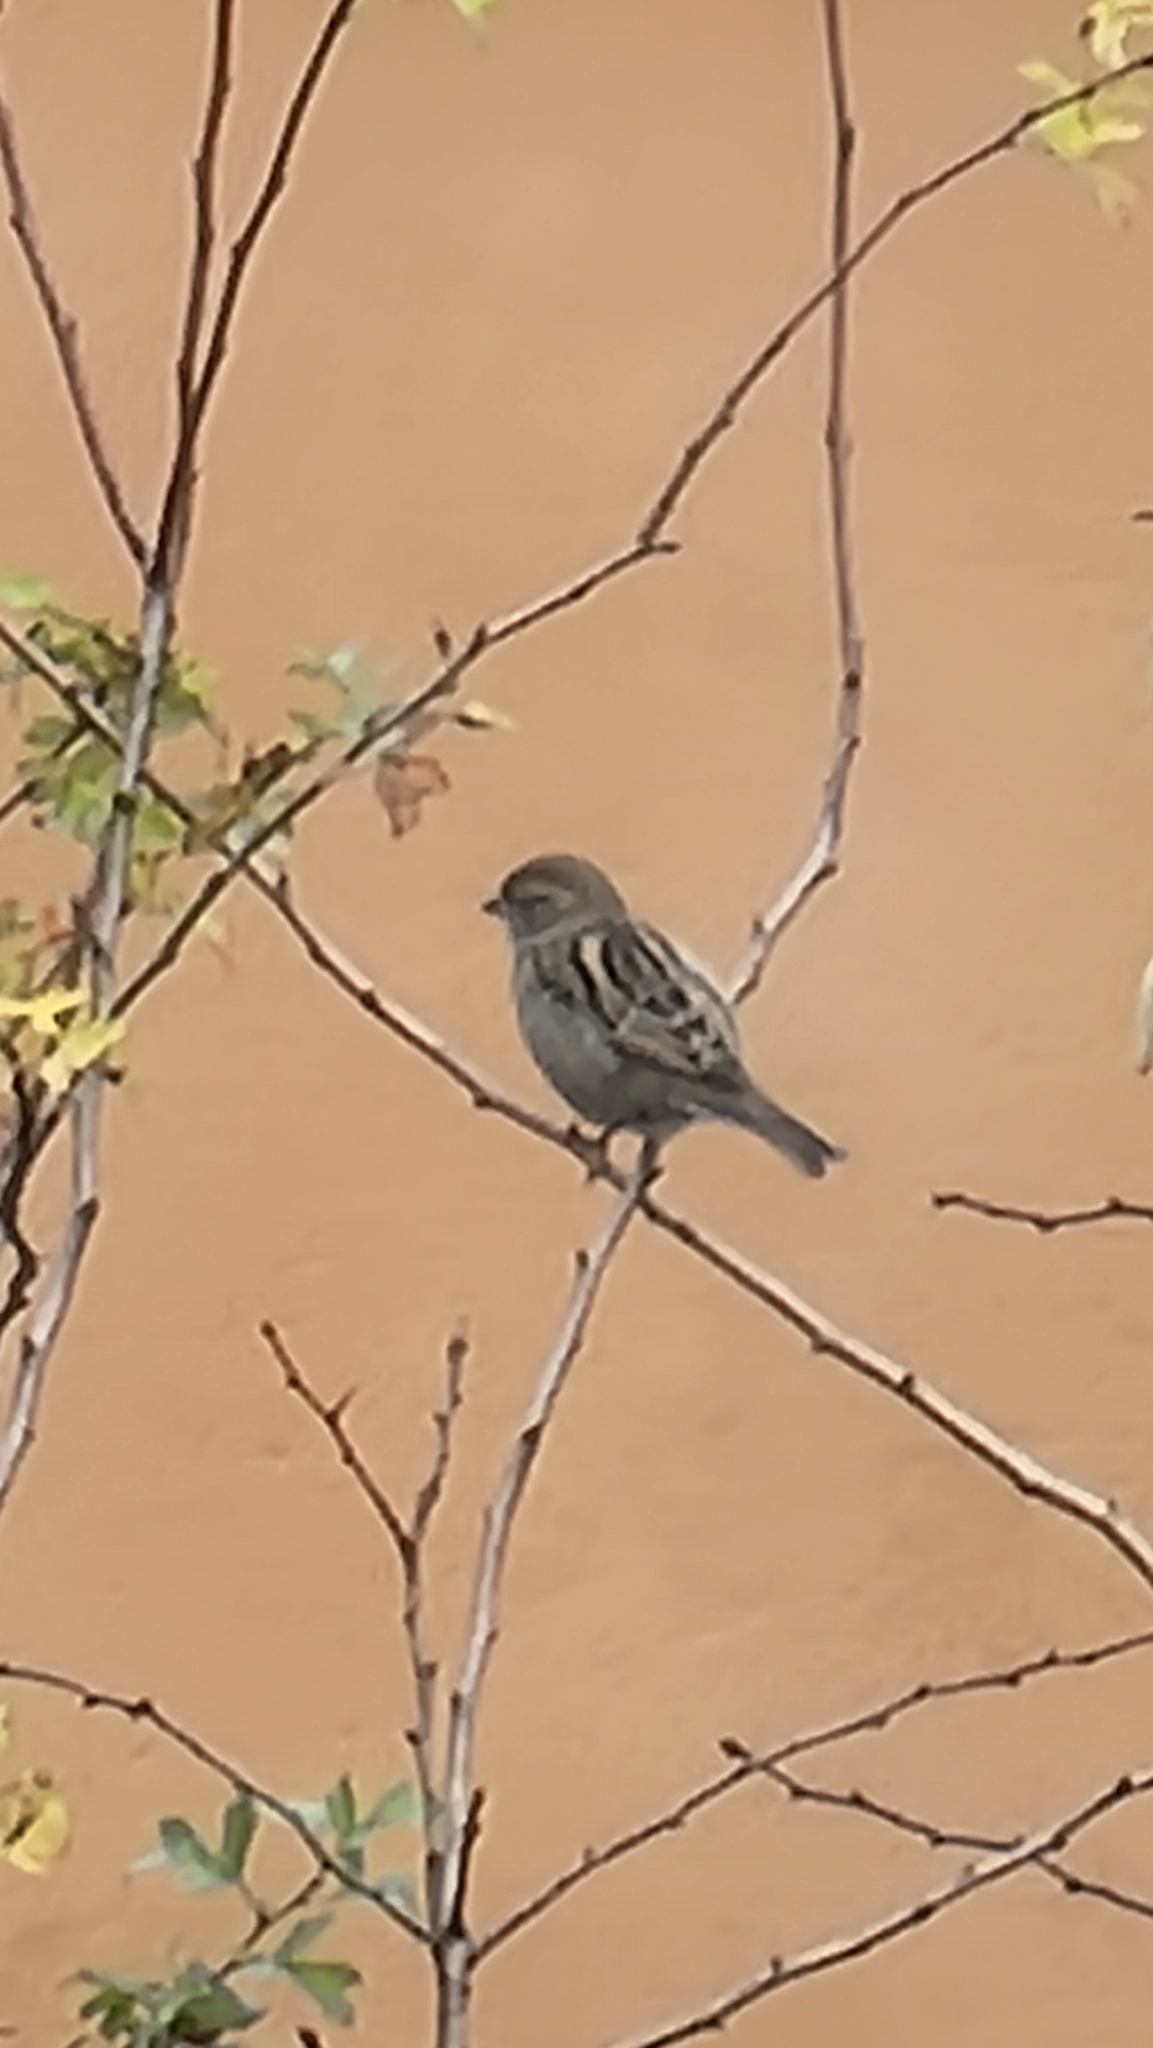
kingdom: Animalia
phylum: Chordata
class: Aves
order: Passeriformes
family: Passeridae
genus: Passer
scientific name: Passer domesticus
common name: House sparrow
